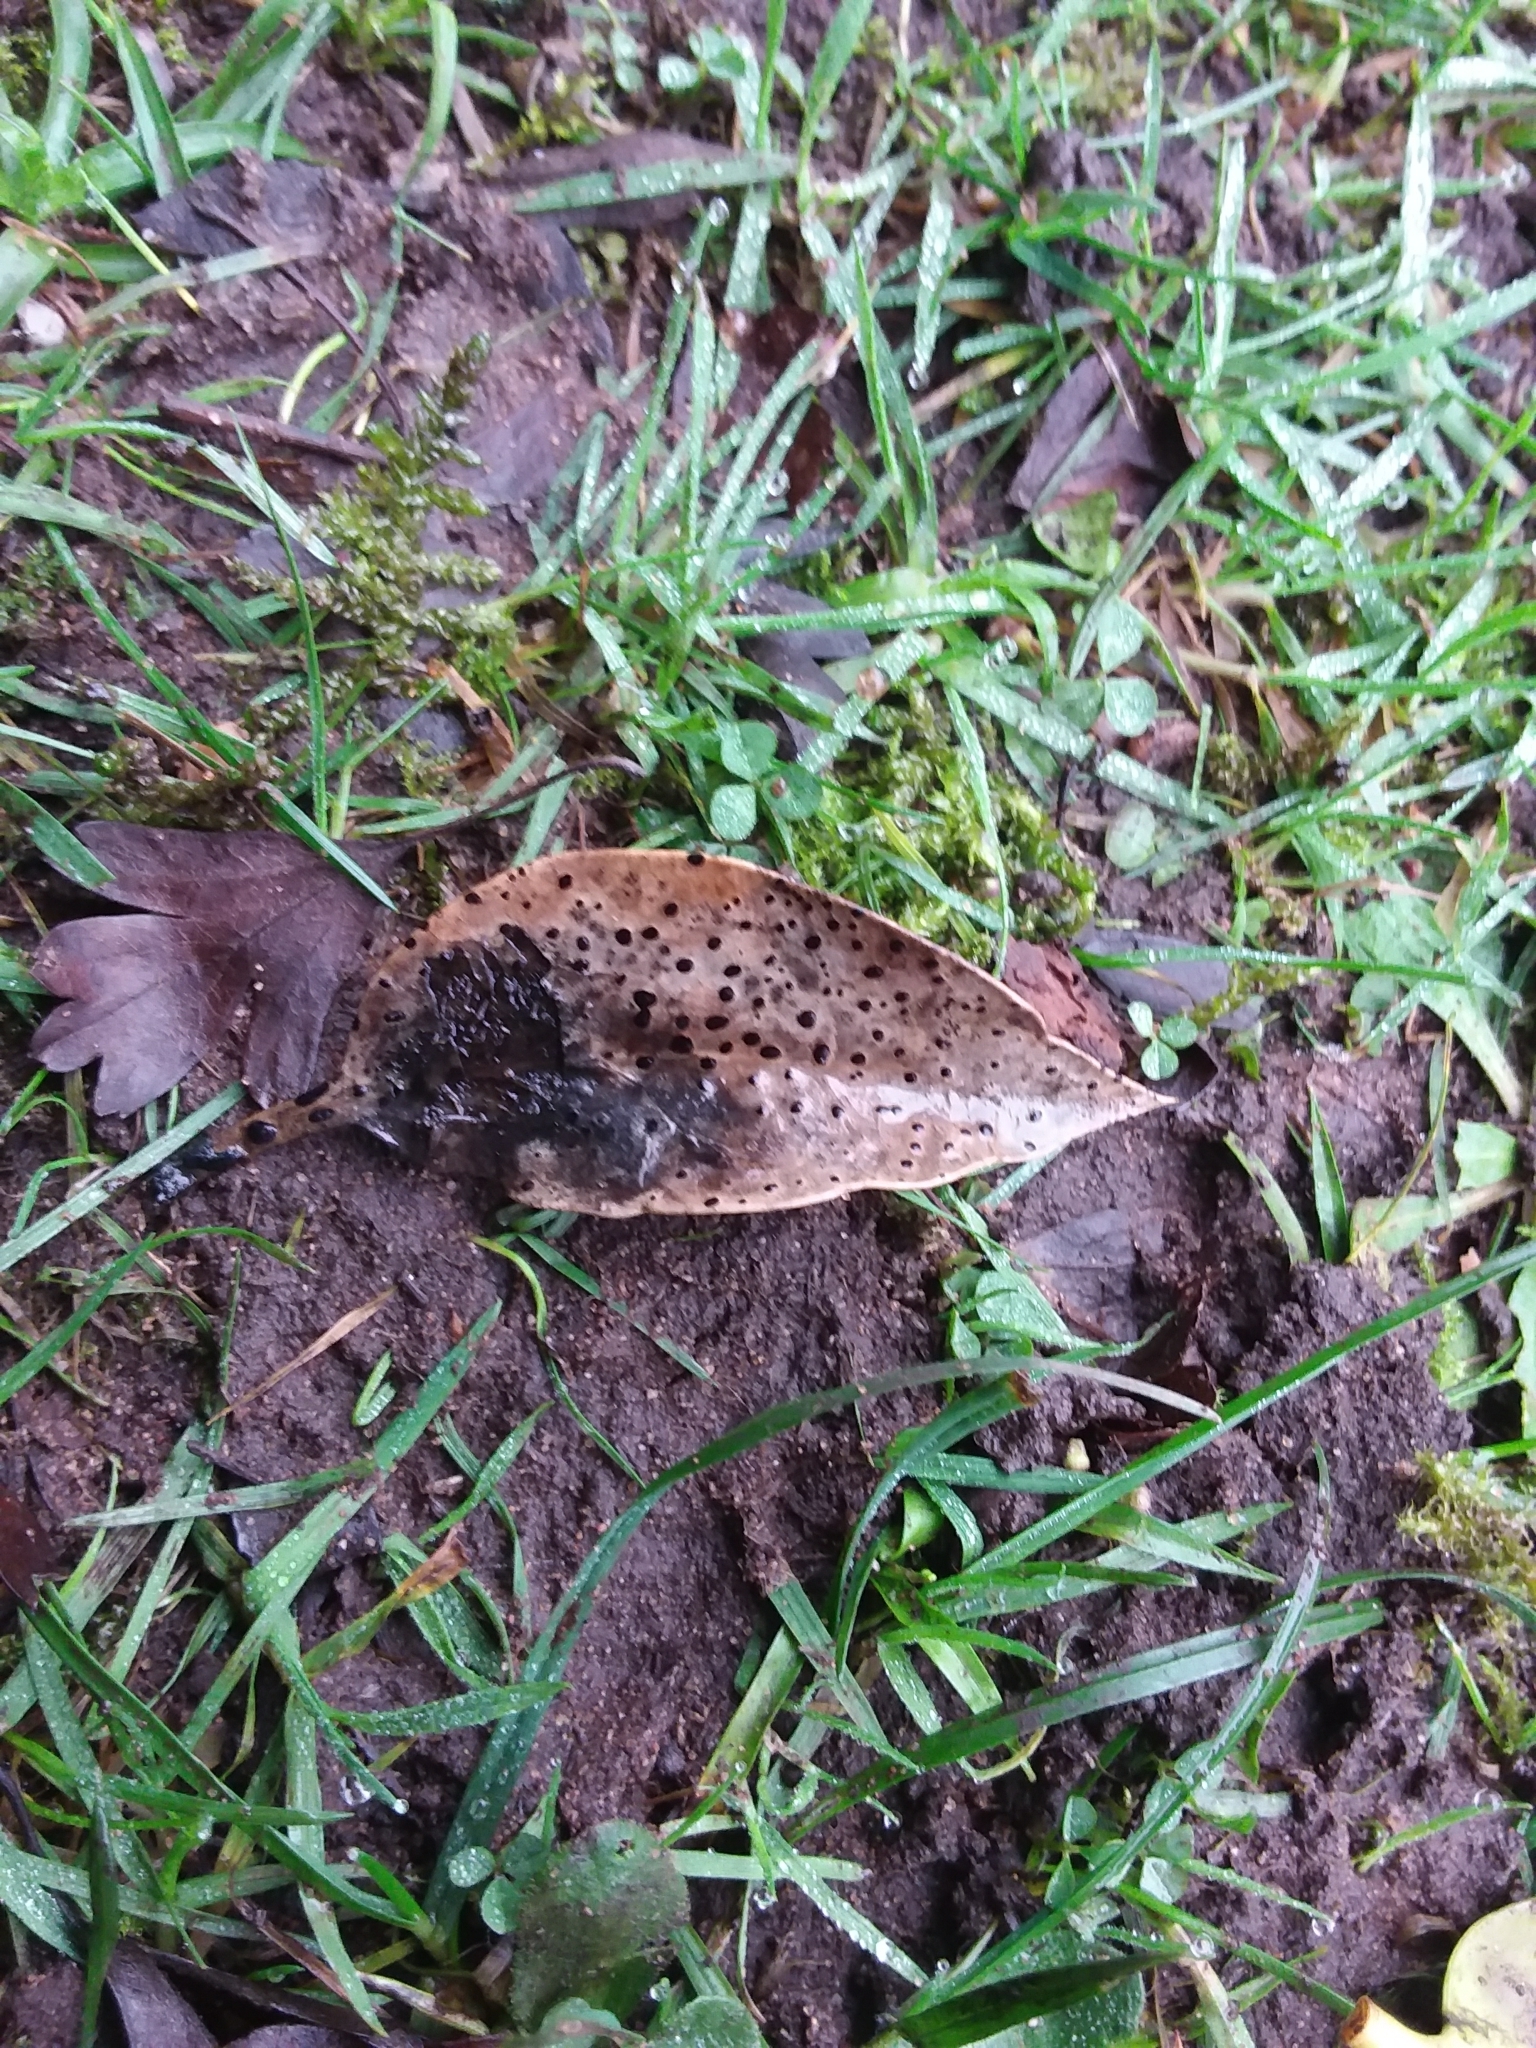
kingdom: Fungi
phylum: Ascomycota
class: Leotiomycetes
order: Phacidiales
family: Phacidiaceae
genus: Phacidium
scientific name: Phacidium lauri
